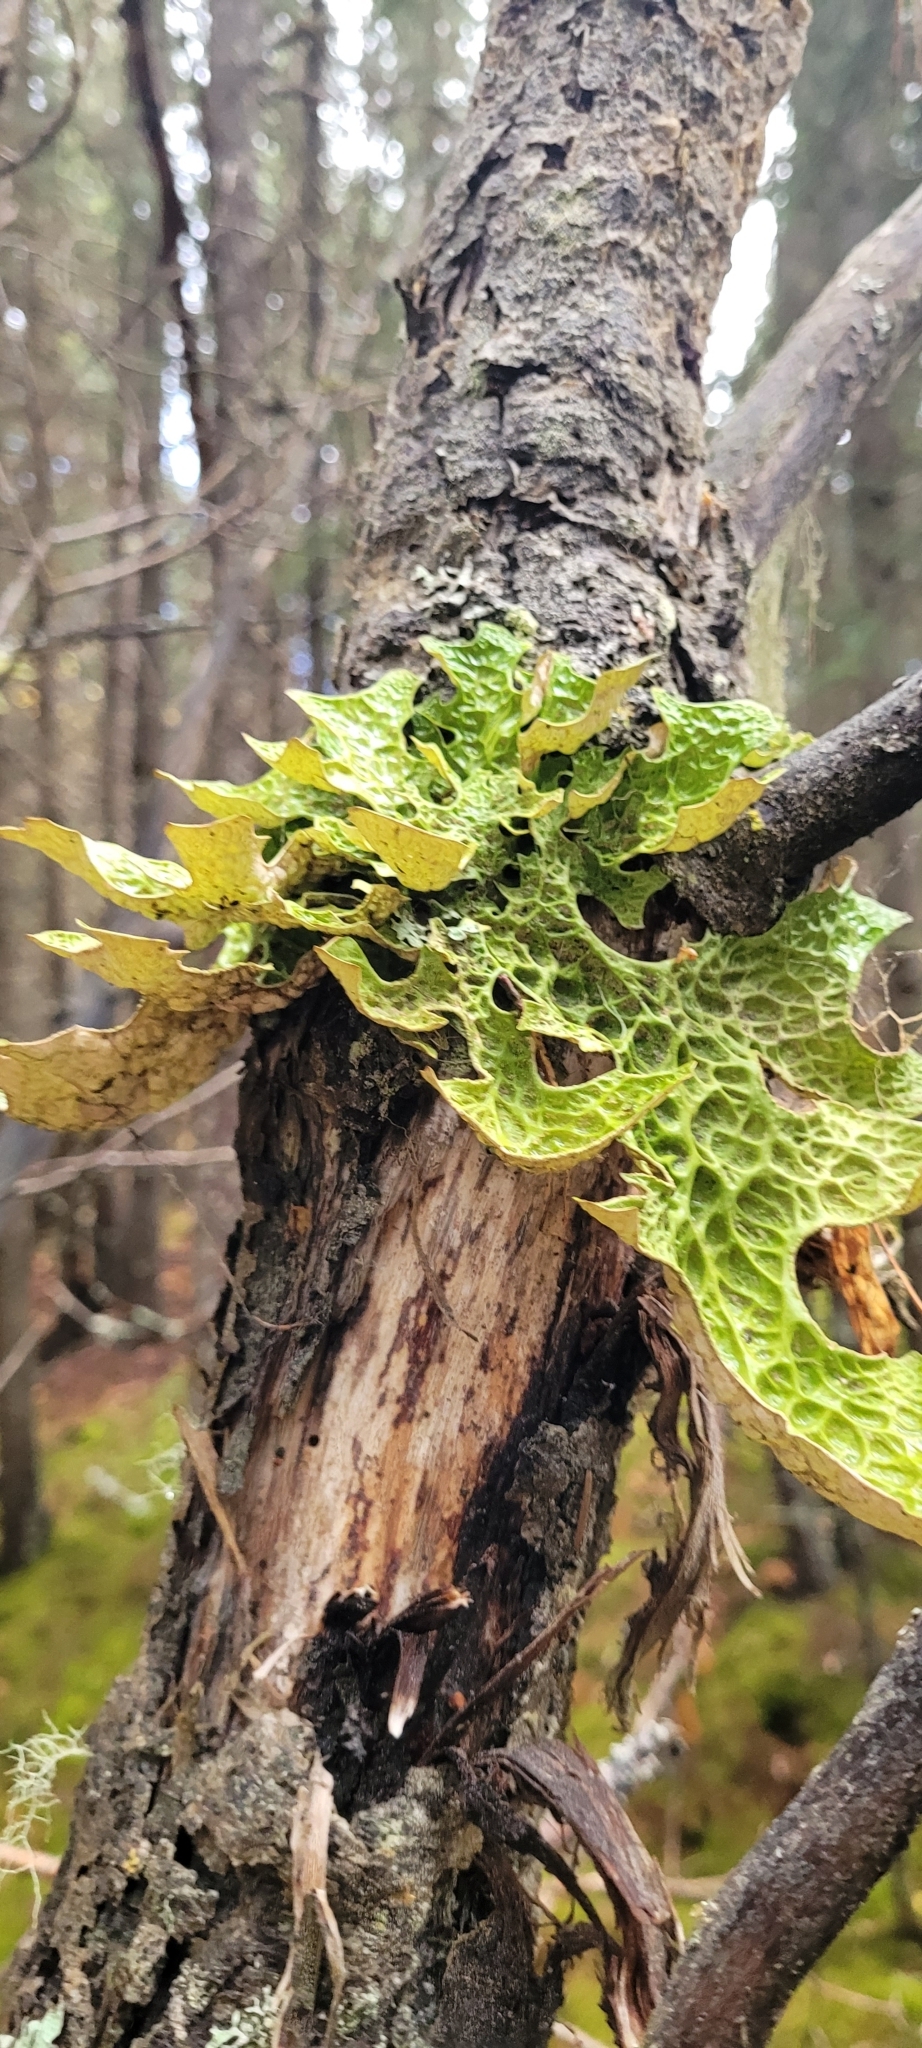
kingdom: Fungi
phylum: Ascomycota
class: Lecanoromycetes
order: Peltigerales
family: Lobariaceae
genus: Lobaria
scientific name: Lobaria pulmonaria
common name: Lungwort
